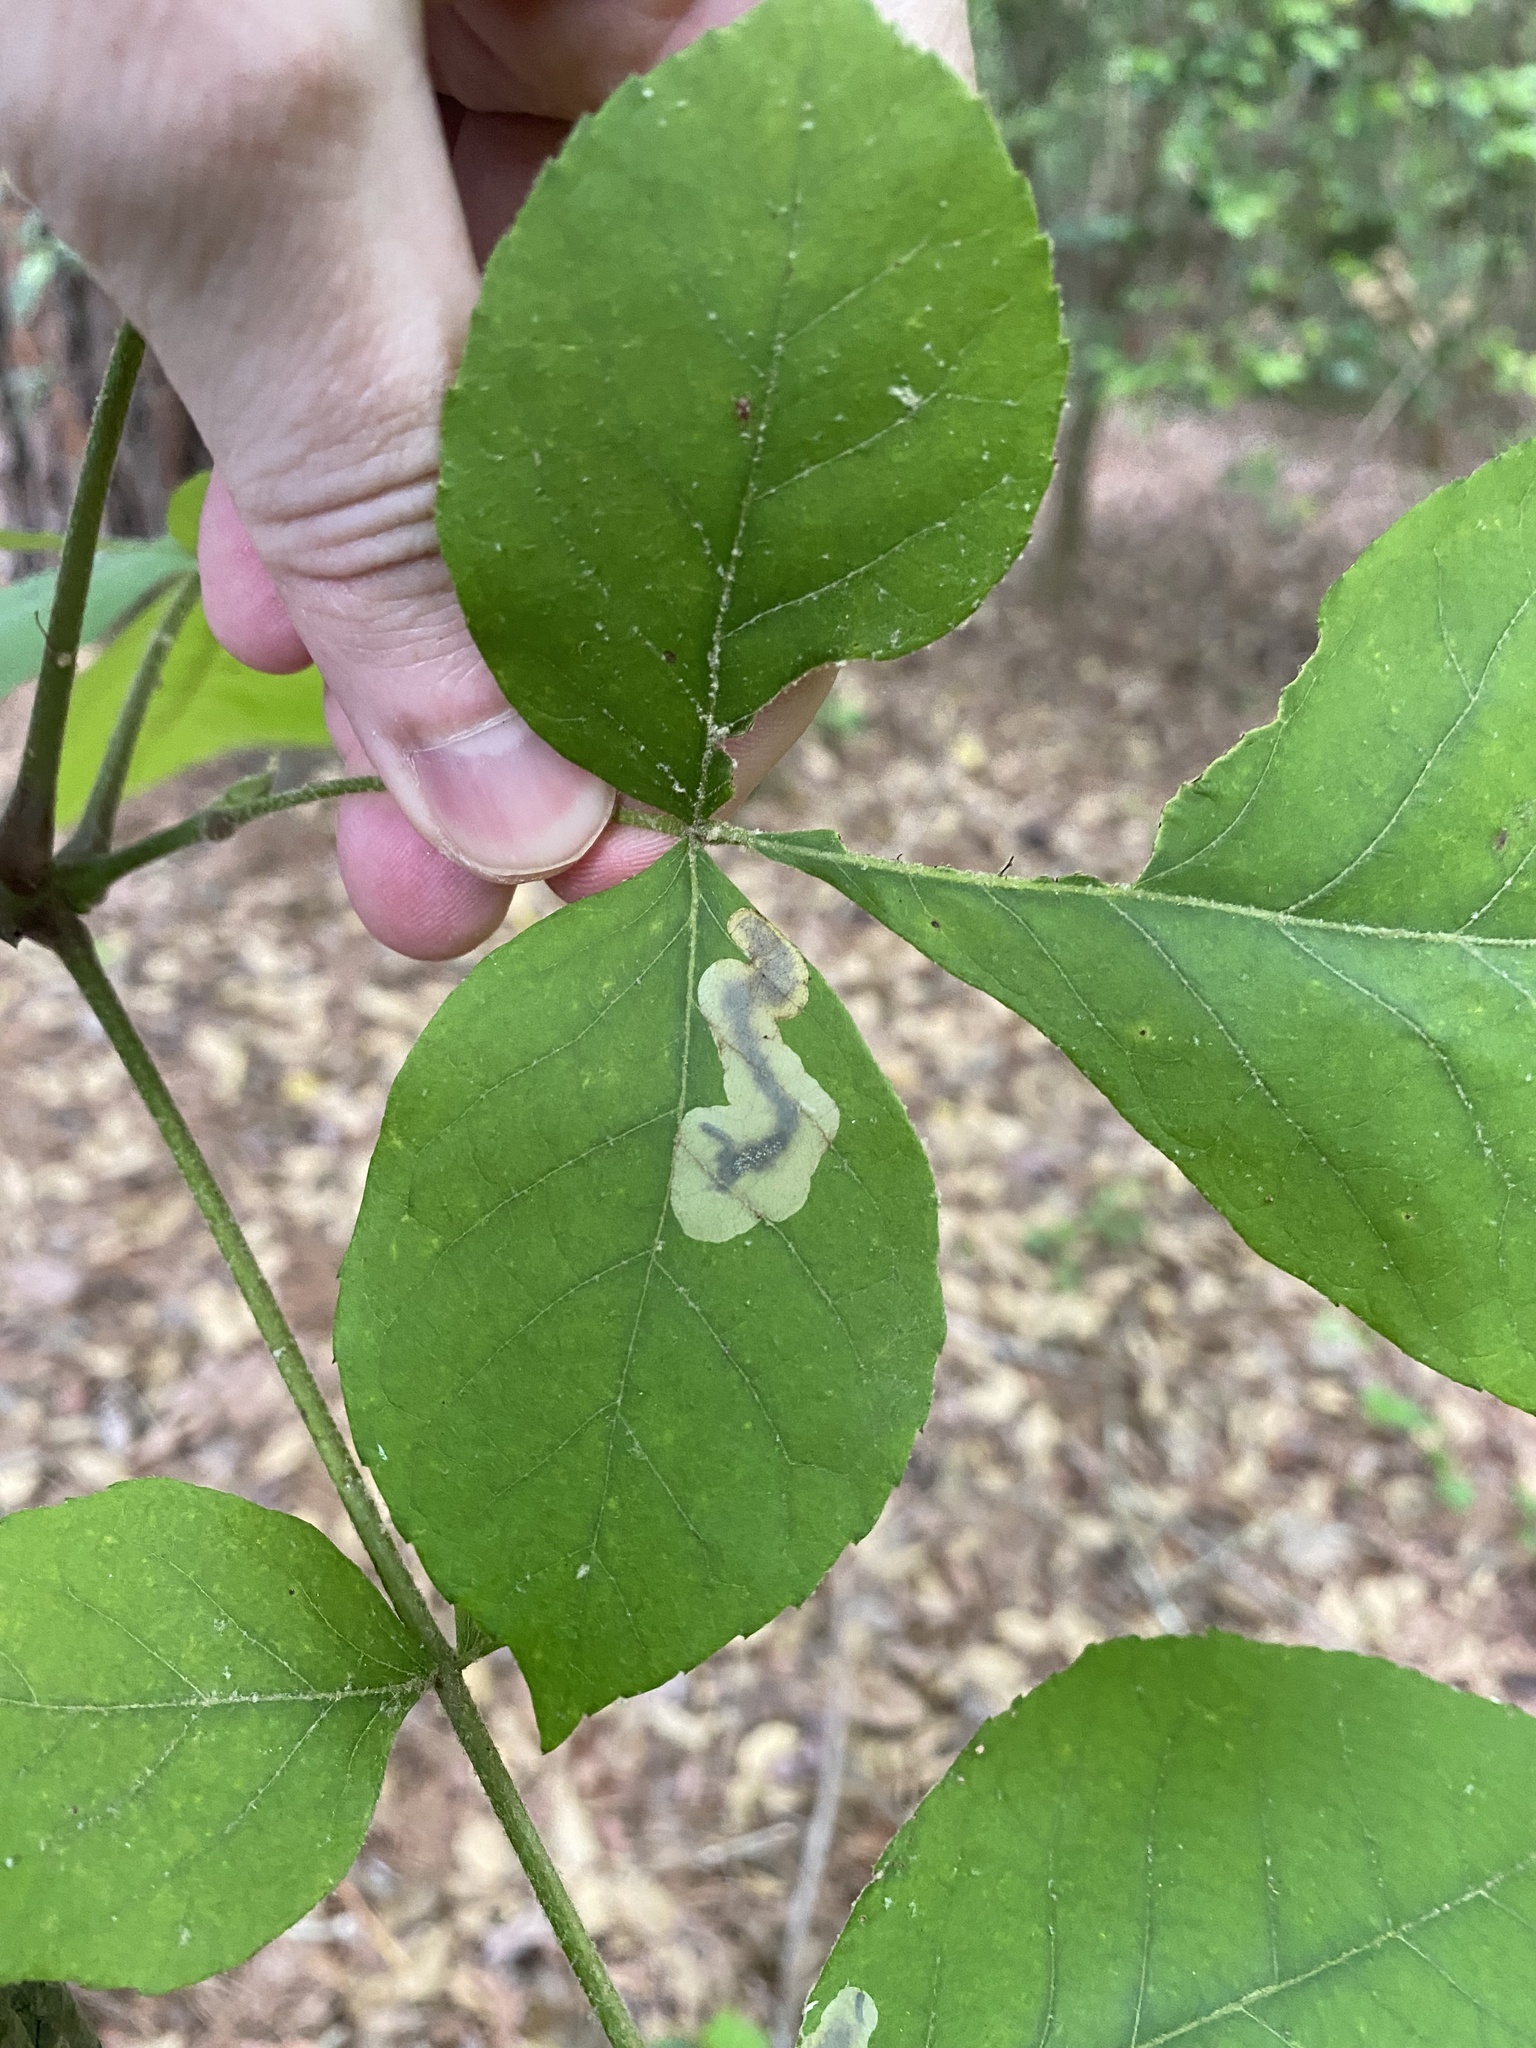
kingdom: Animalia
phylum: Arthropoda
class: Insecta
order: Lepidoptera
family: Gracillariidae
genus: Cameraria
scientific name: Cameraria caryaefoliella
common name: Pecan leafminer moth
